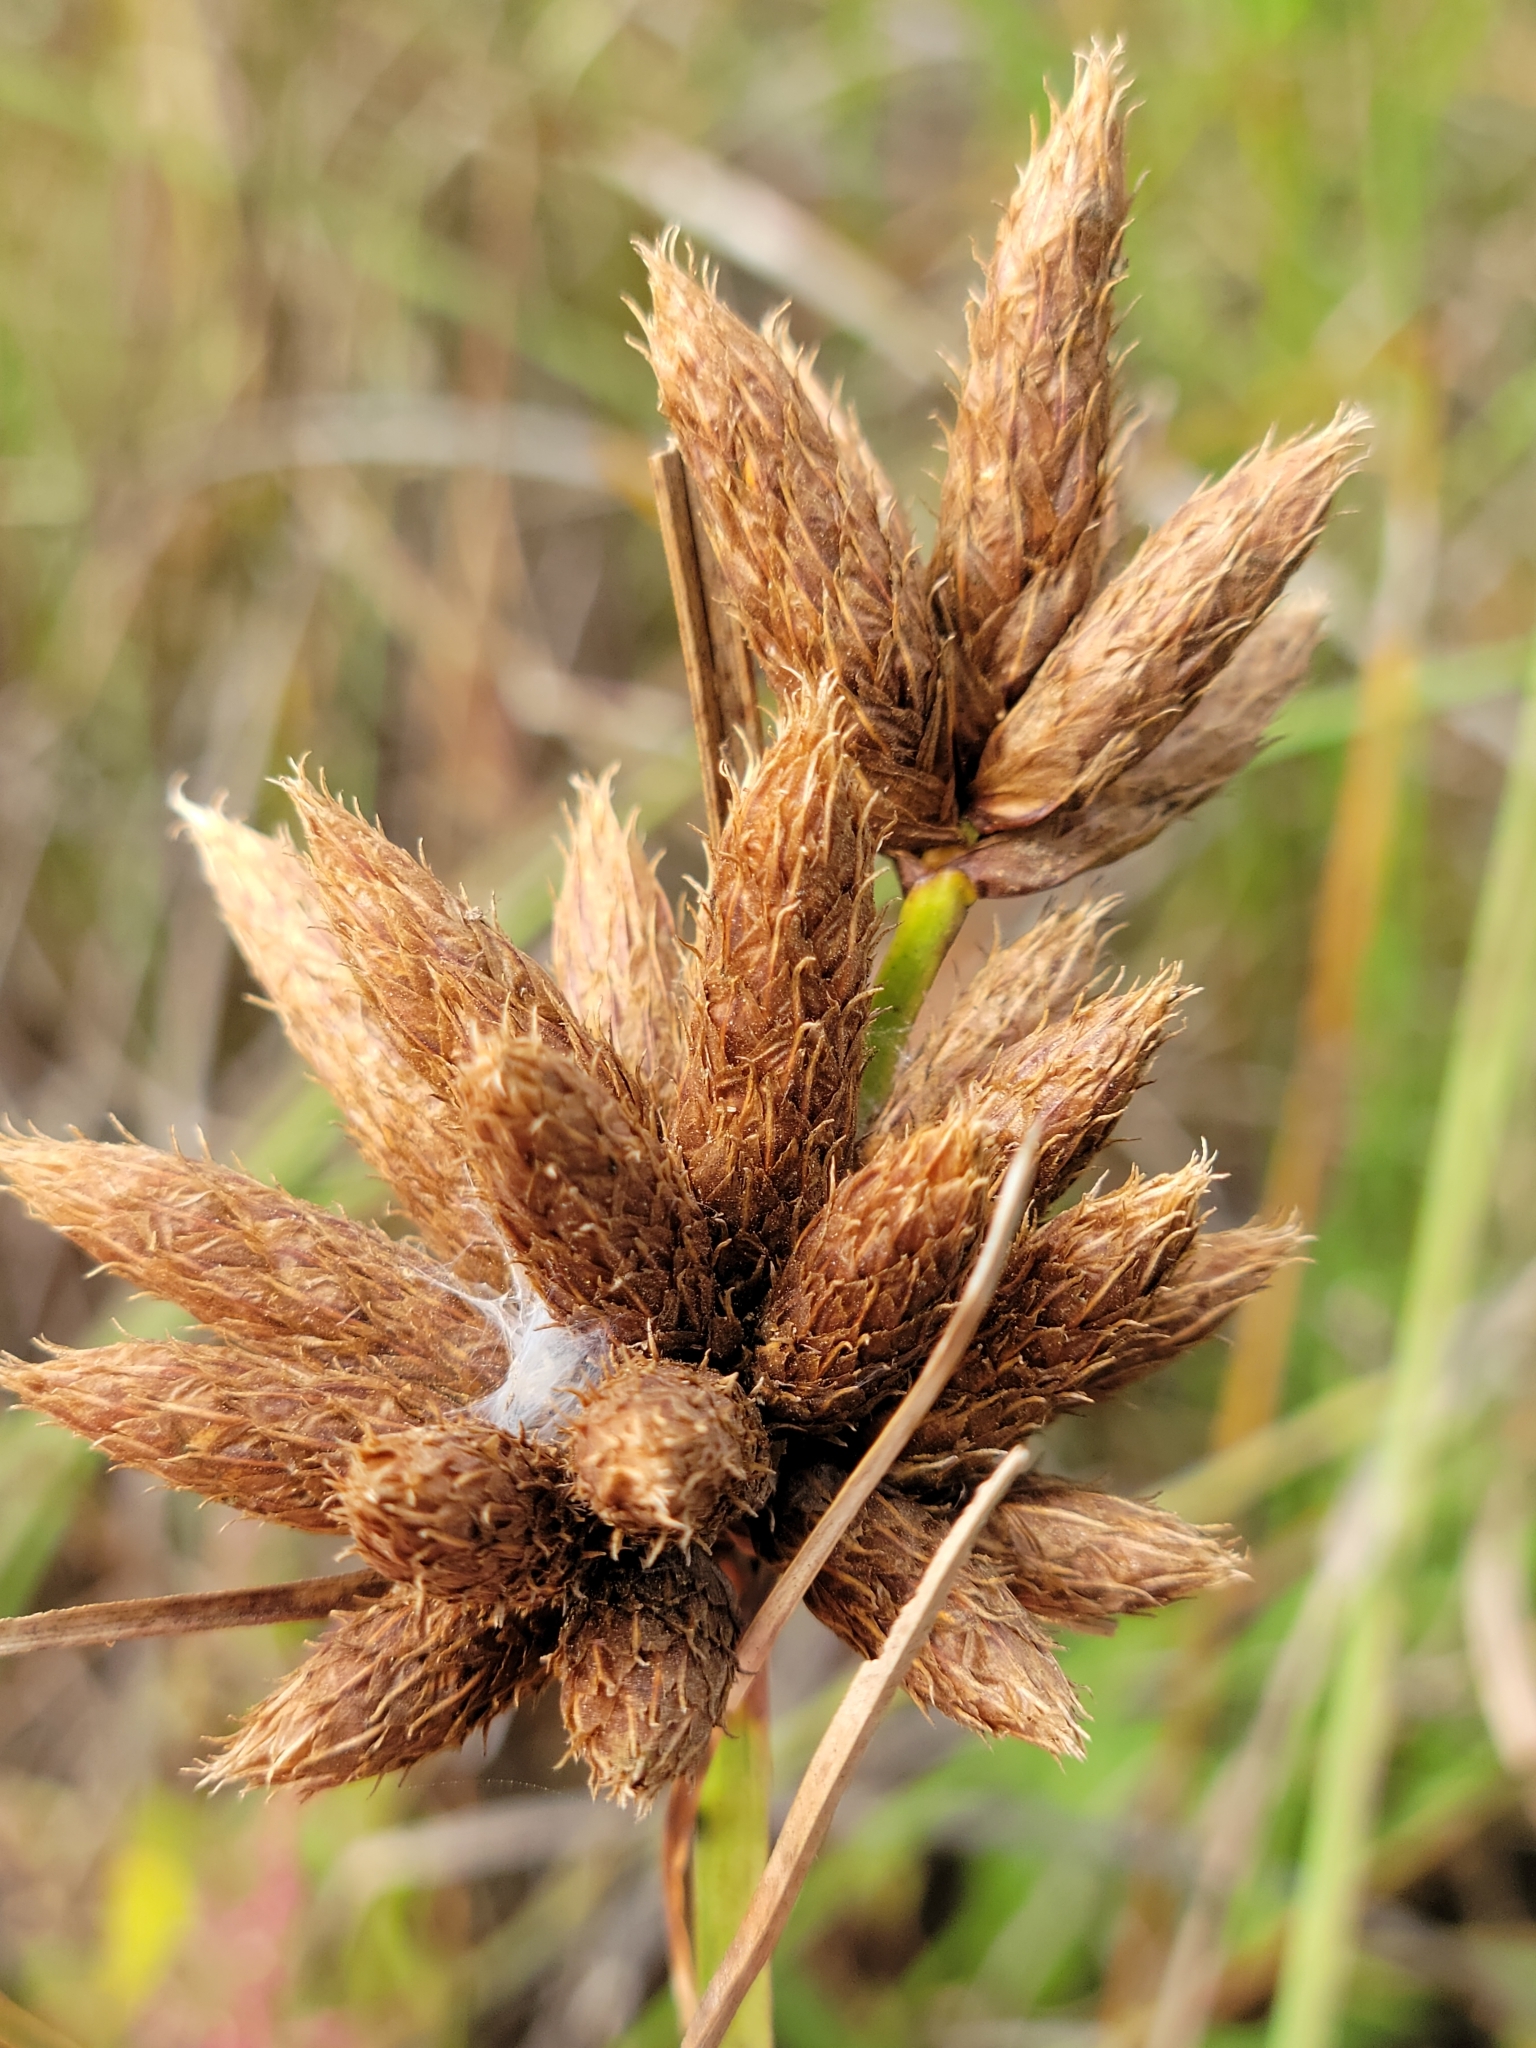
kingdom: Plantae
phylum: Tracheophyta
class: Liliopsida
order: Poales
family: Cyperaceae
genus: Bolboschoenus
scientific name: Bolboschoenus maritimus
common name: Sea club-rush
